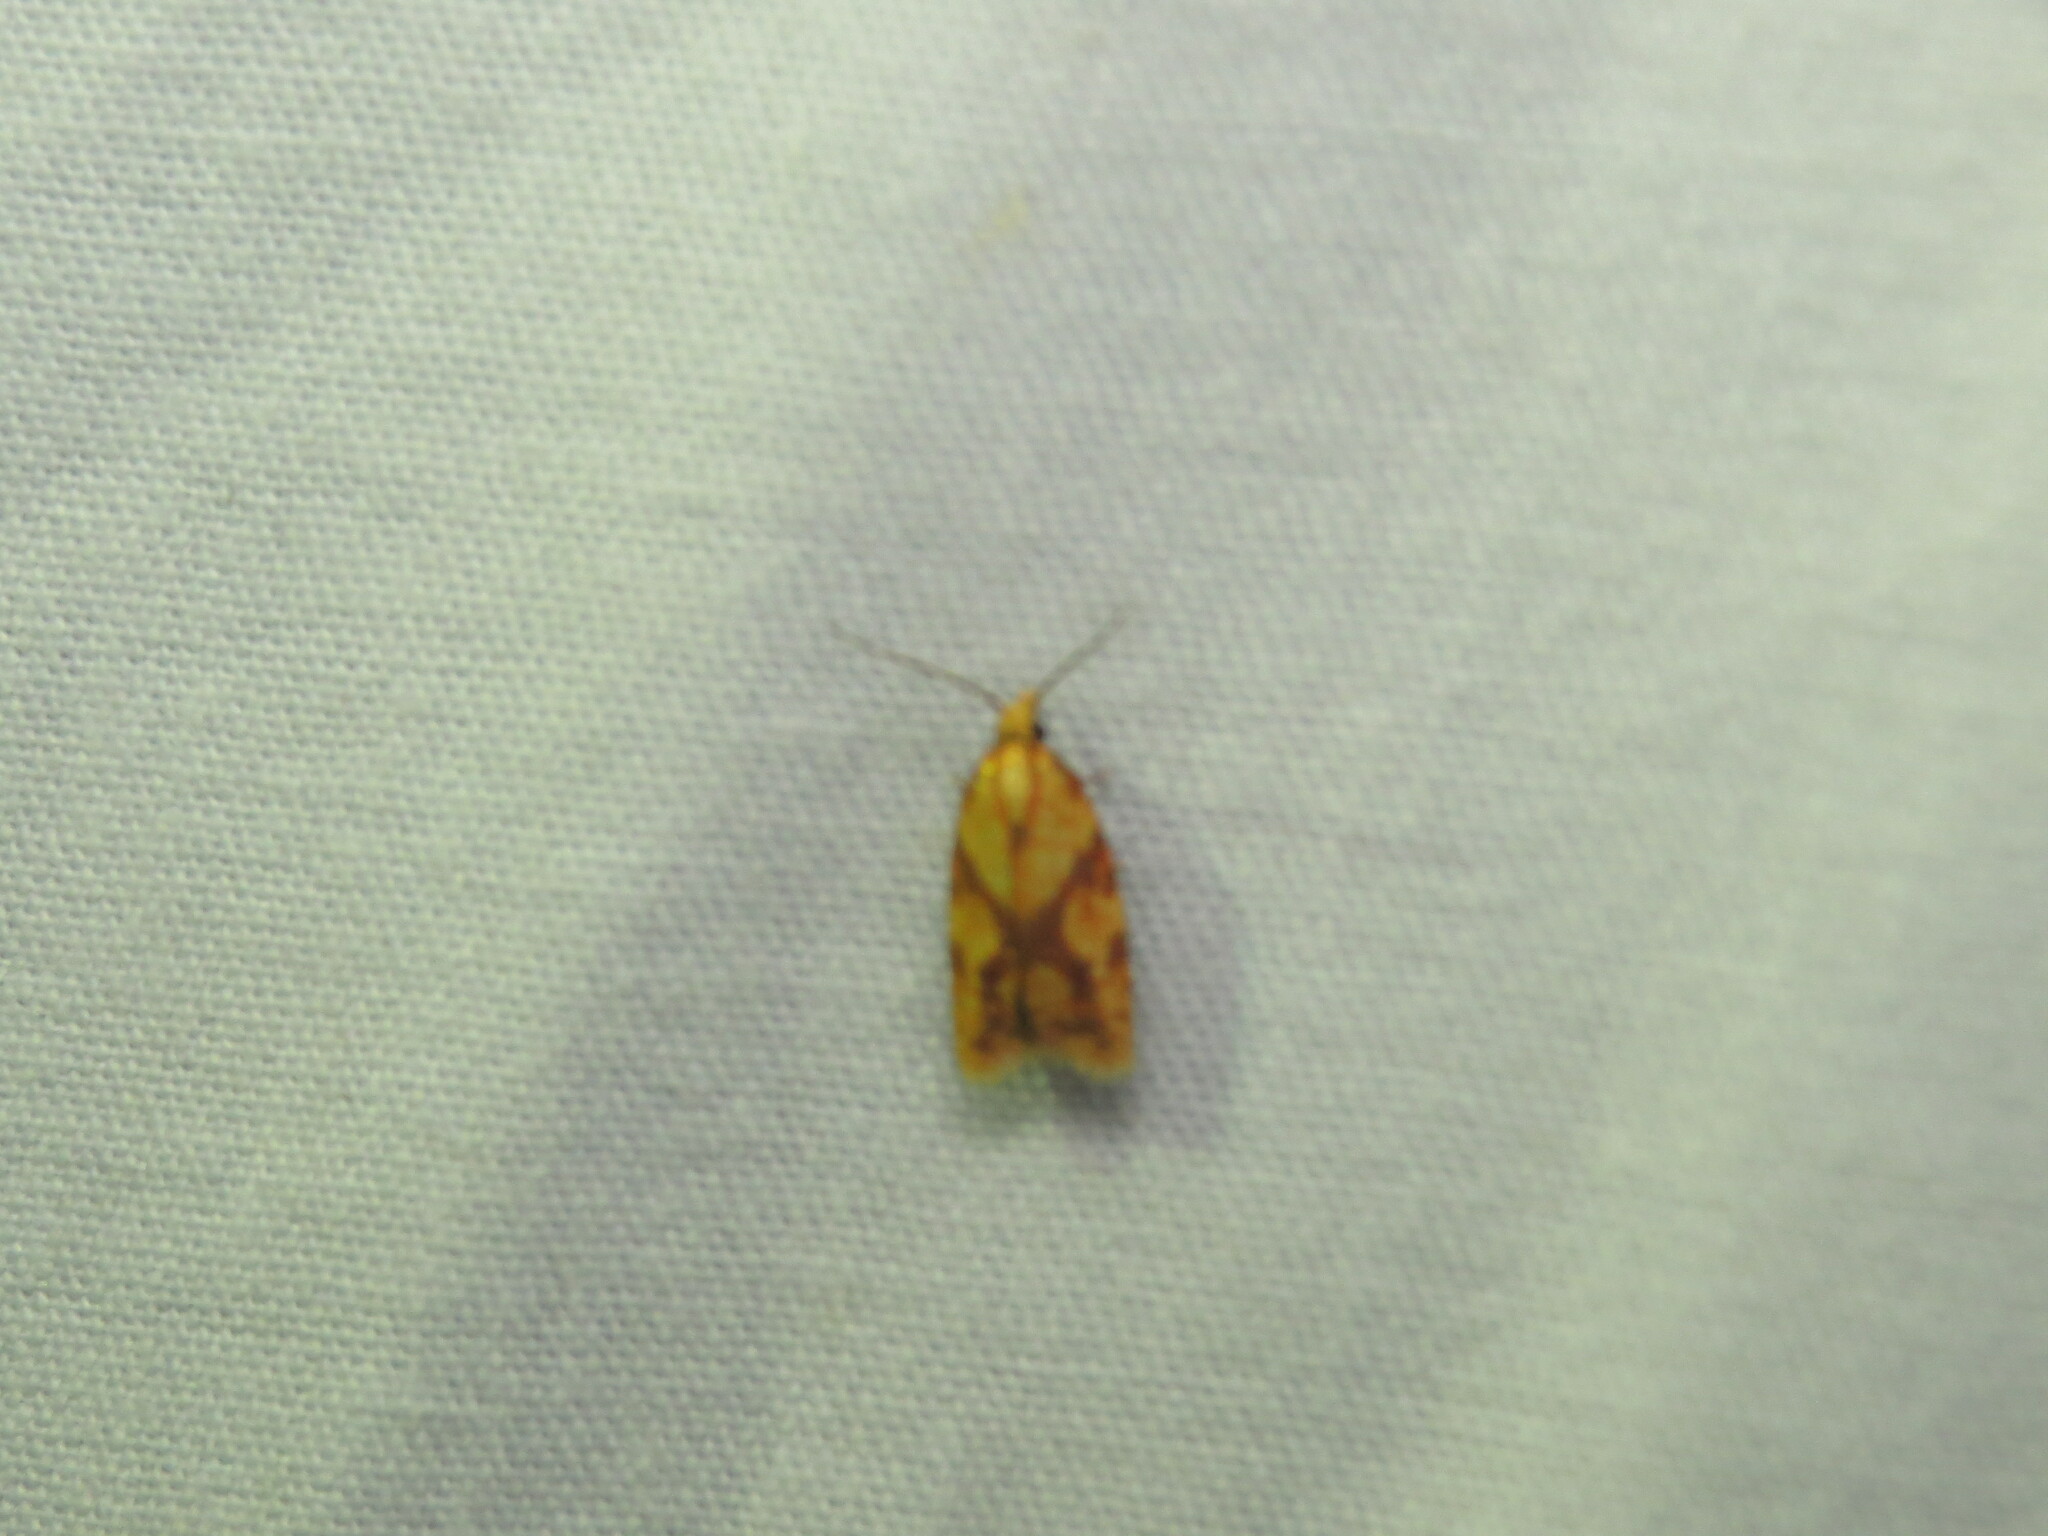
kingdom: Animalia
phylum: Arthropoda
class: Insecta
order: Lepidoptera
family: Tortricidae
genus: Sparganothis
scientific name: Sparganothis sulfureana
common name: Sparganothis fruitworm moth
